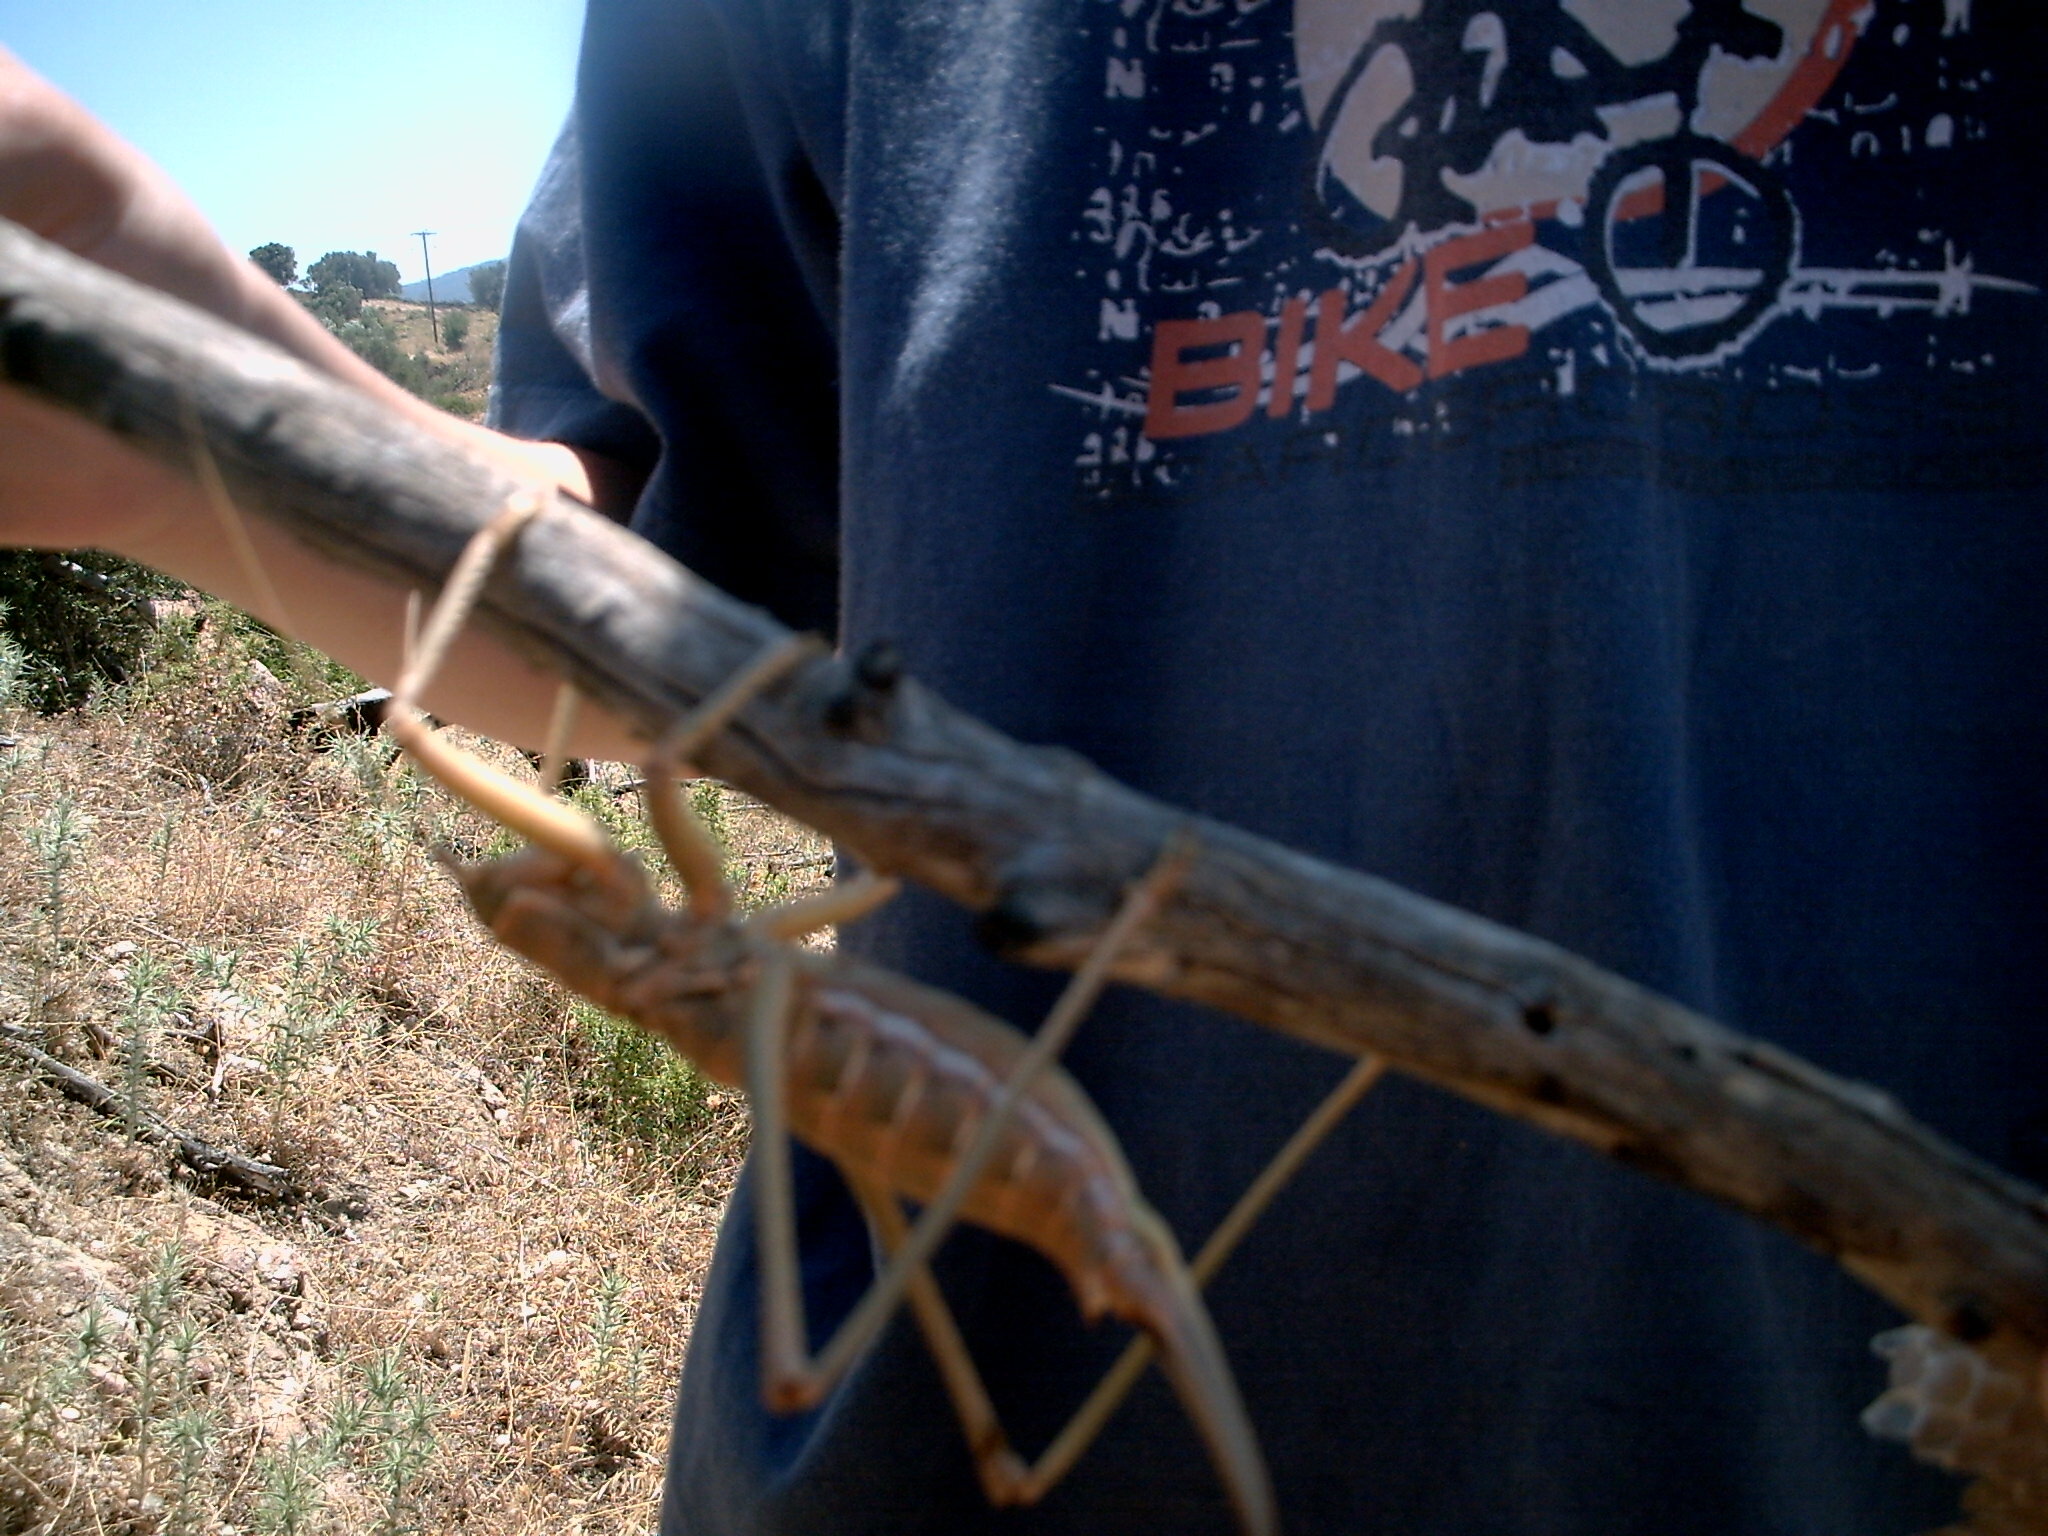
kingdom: Animalia
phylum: Arthropoda
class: Insecta
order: Orthoptera
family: Tettigoniidae
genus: Saga
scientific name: Saga hellenica
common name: Greek predatory bush-cricket
